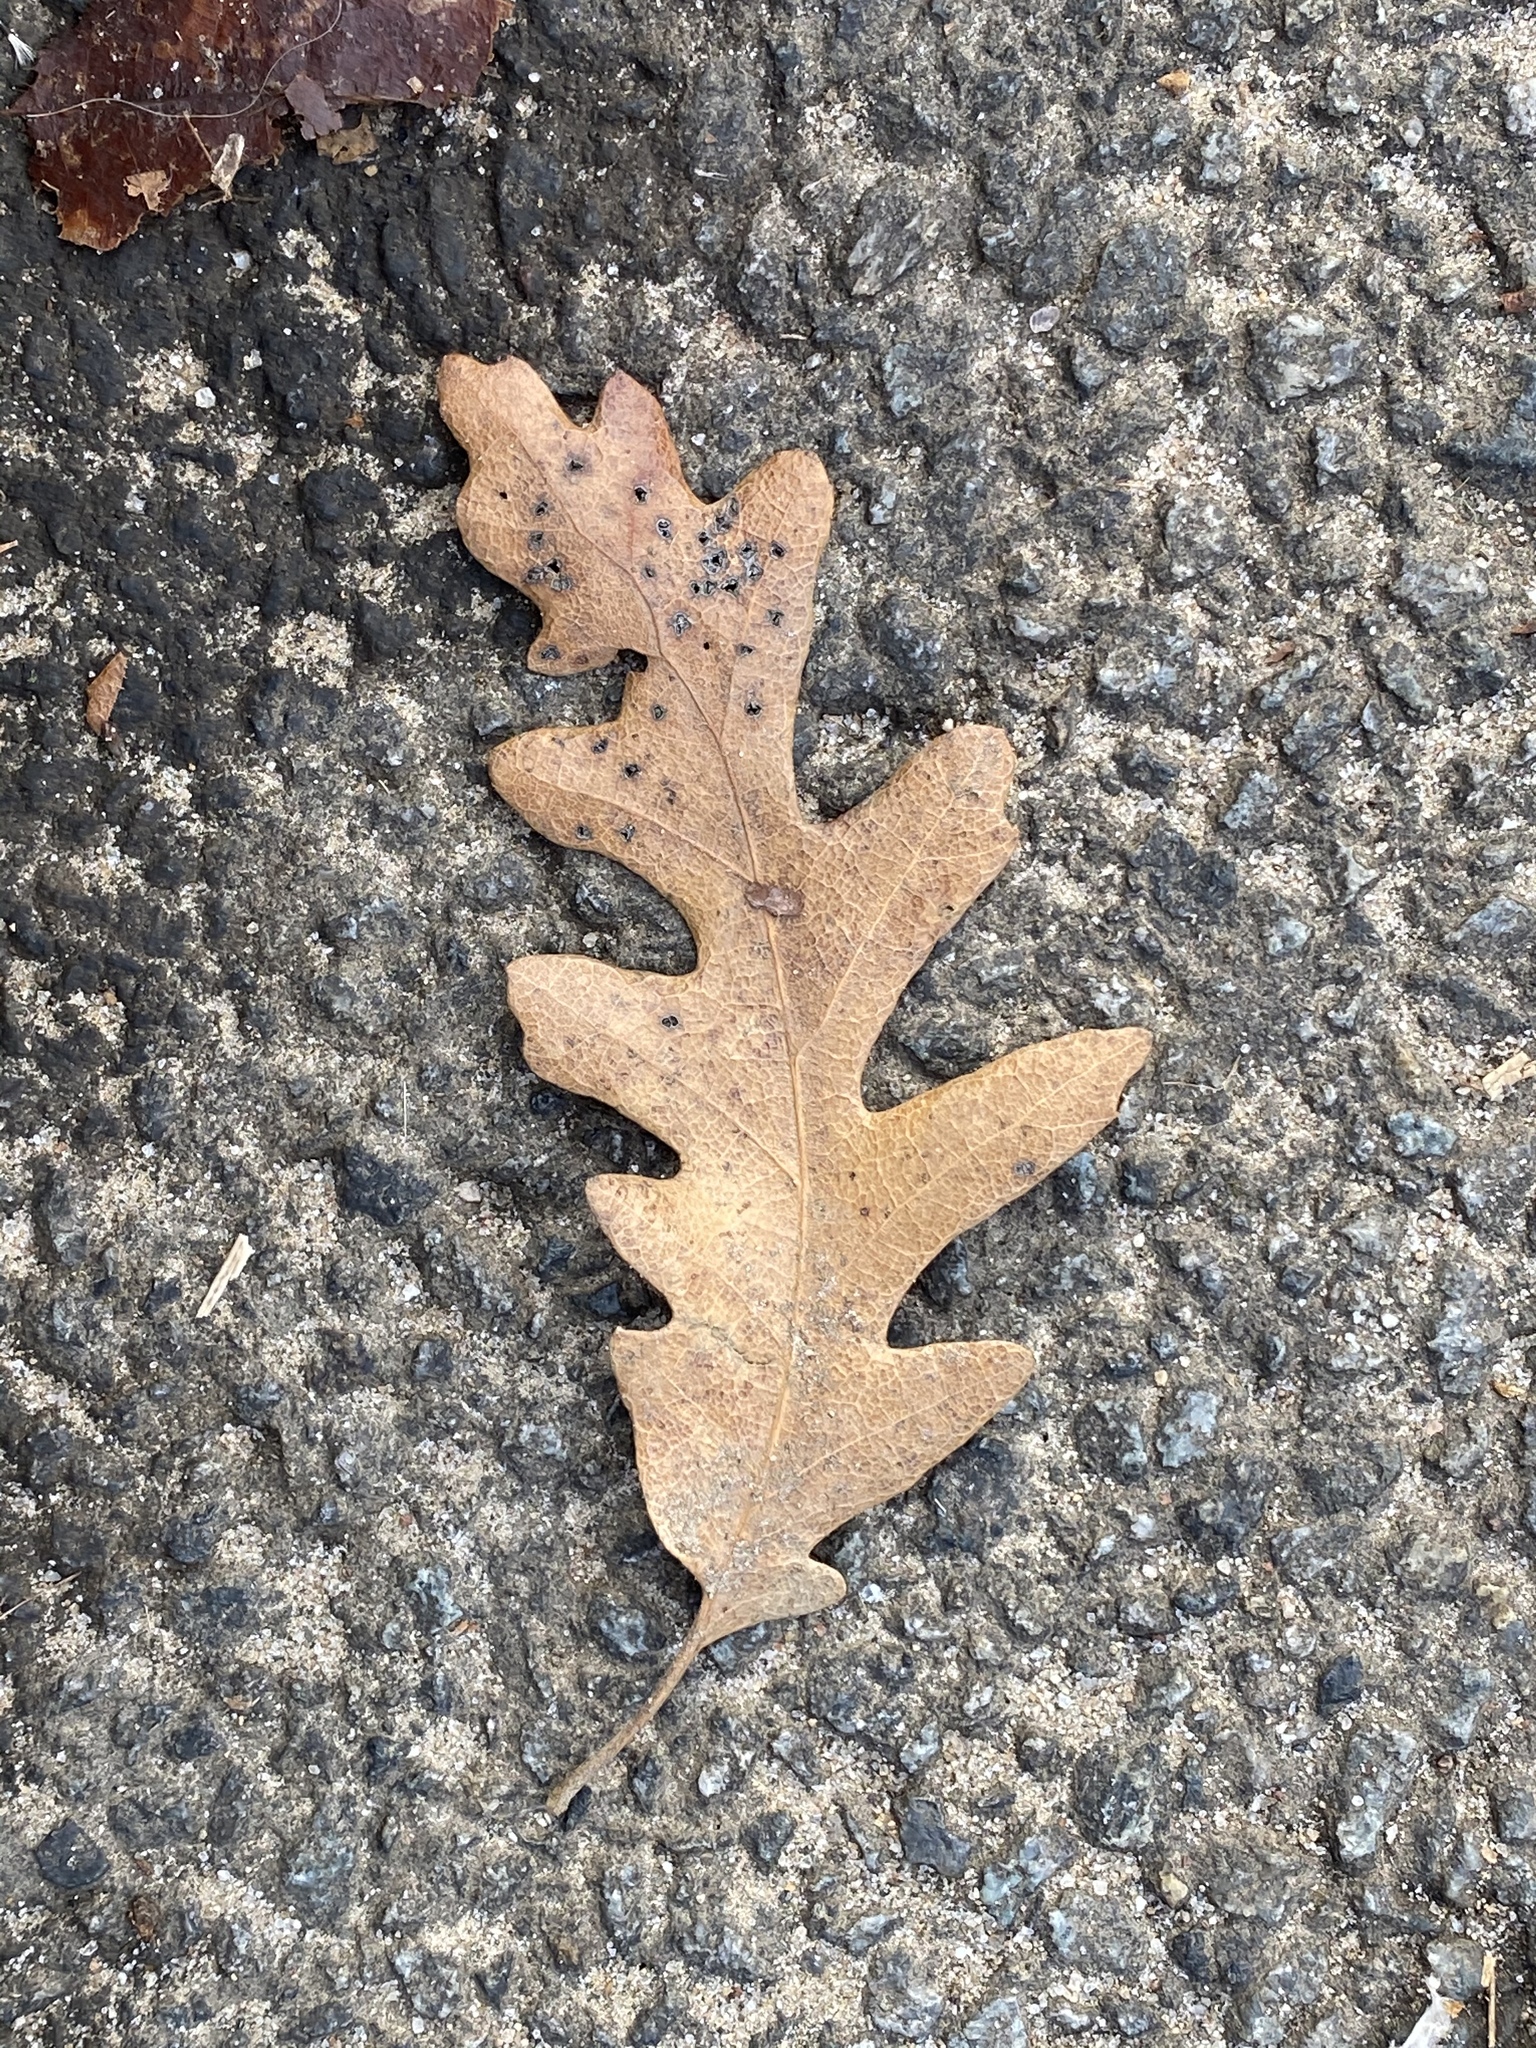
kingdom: Plantae
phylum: Tracheophyta
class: Magnoliopsida
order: Fagales
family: Fagaceae
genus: Quercus
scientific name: Quercus alba
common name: White oak
